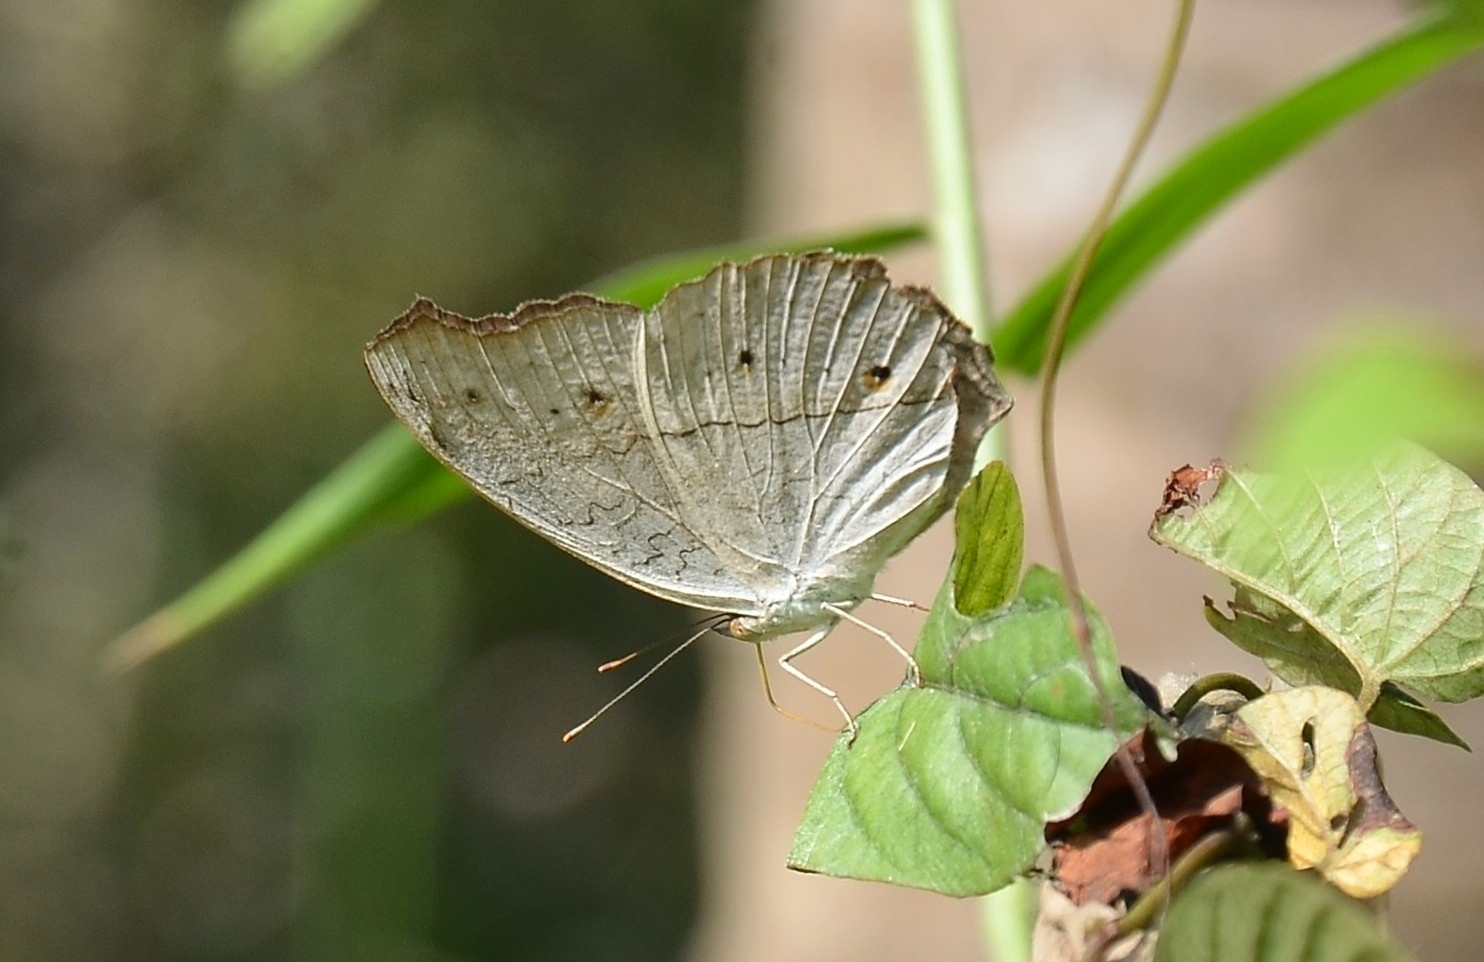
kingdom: Animalia
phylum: Arthropoda
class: Insecta
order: Lepidoptera
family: Nymphalidae
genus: Junonia
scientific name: Junonia atlites
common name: Grey pansy
